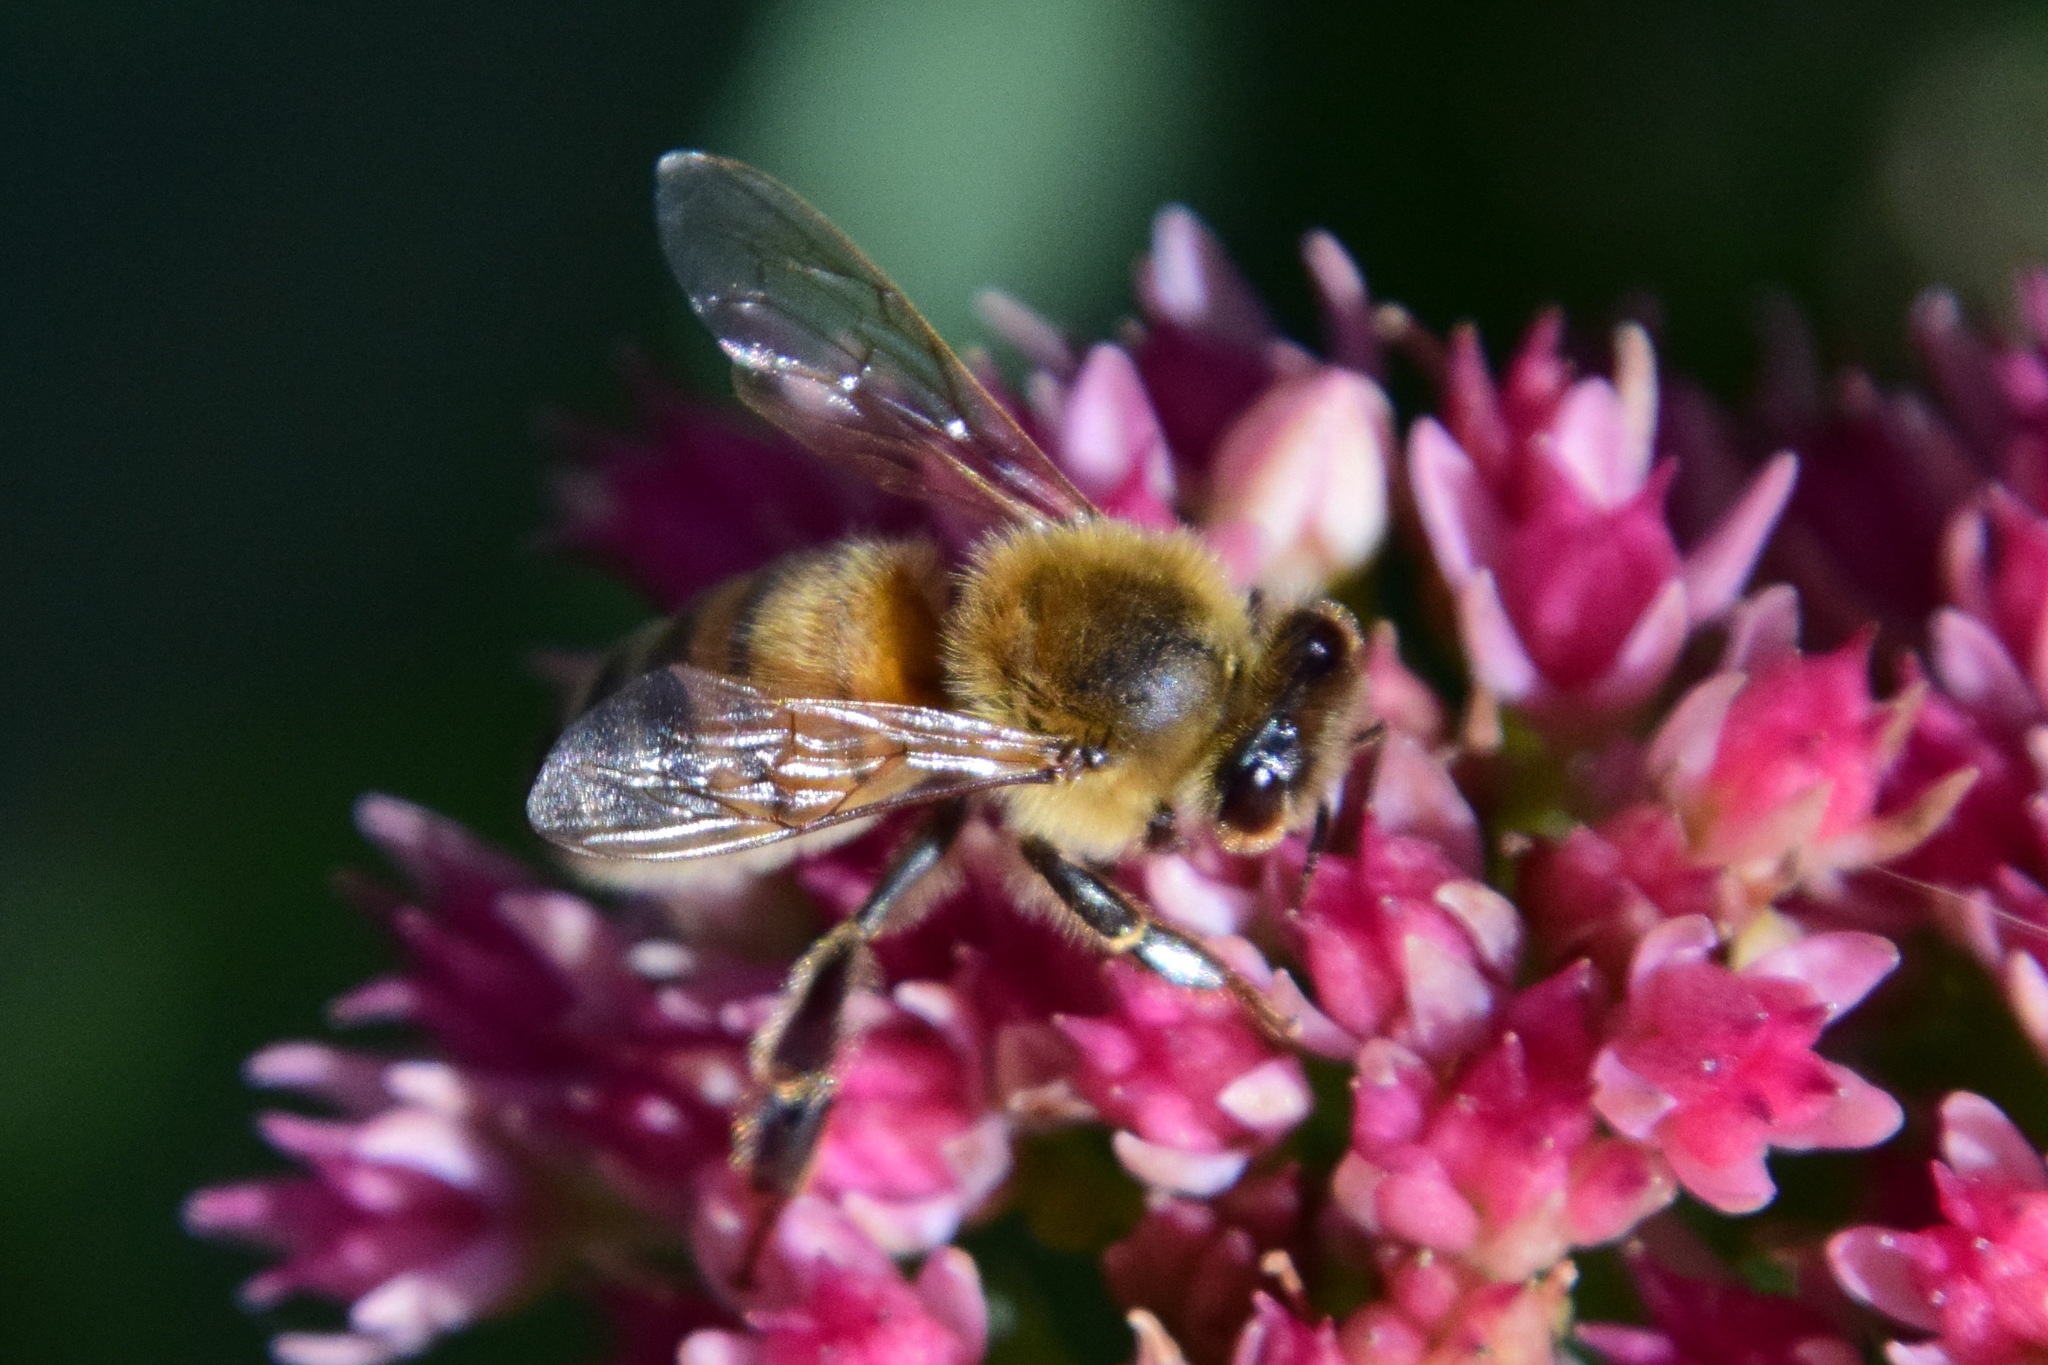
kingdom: Animalia
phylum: Arthropoda
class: Insecta
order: Hymenoptera
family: Apidae
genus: Apis
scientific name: Apis mellifera
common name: Honey bee
